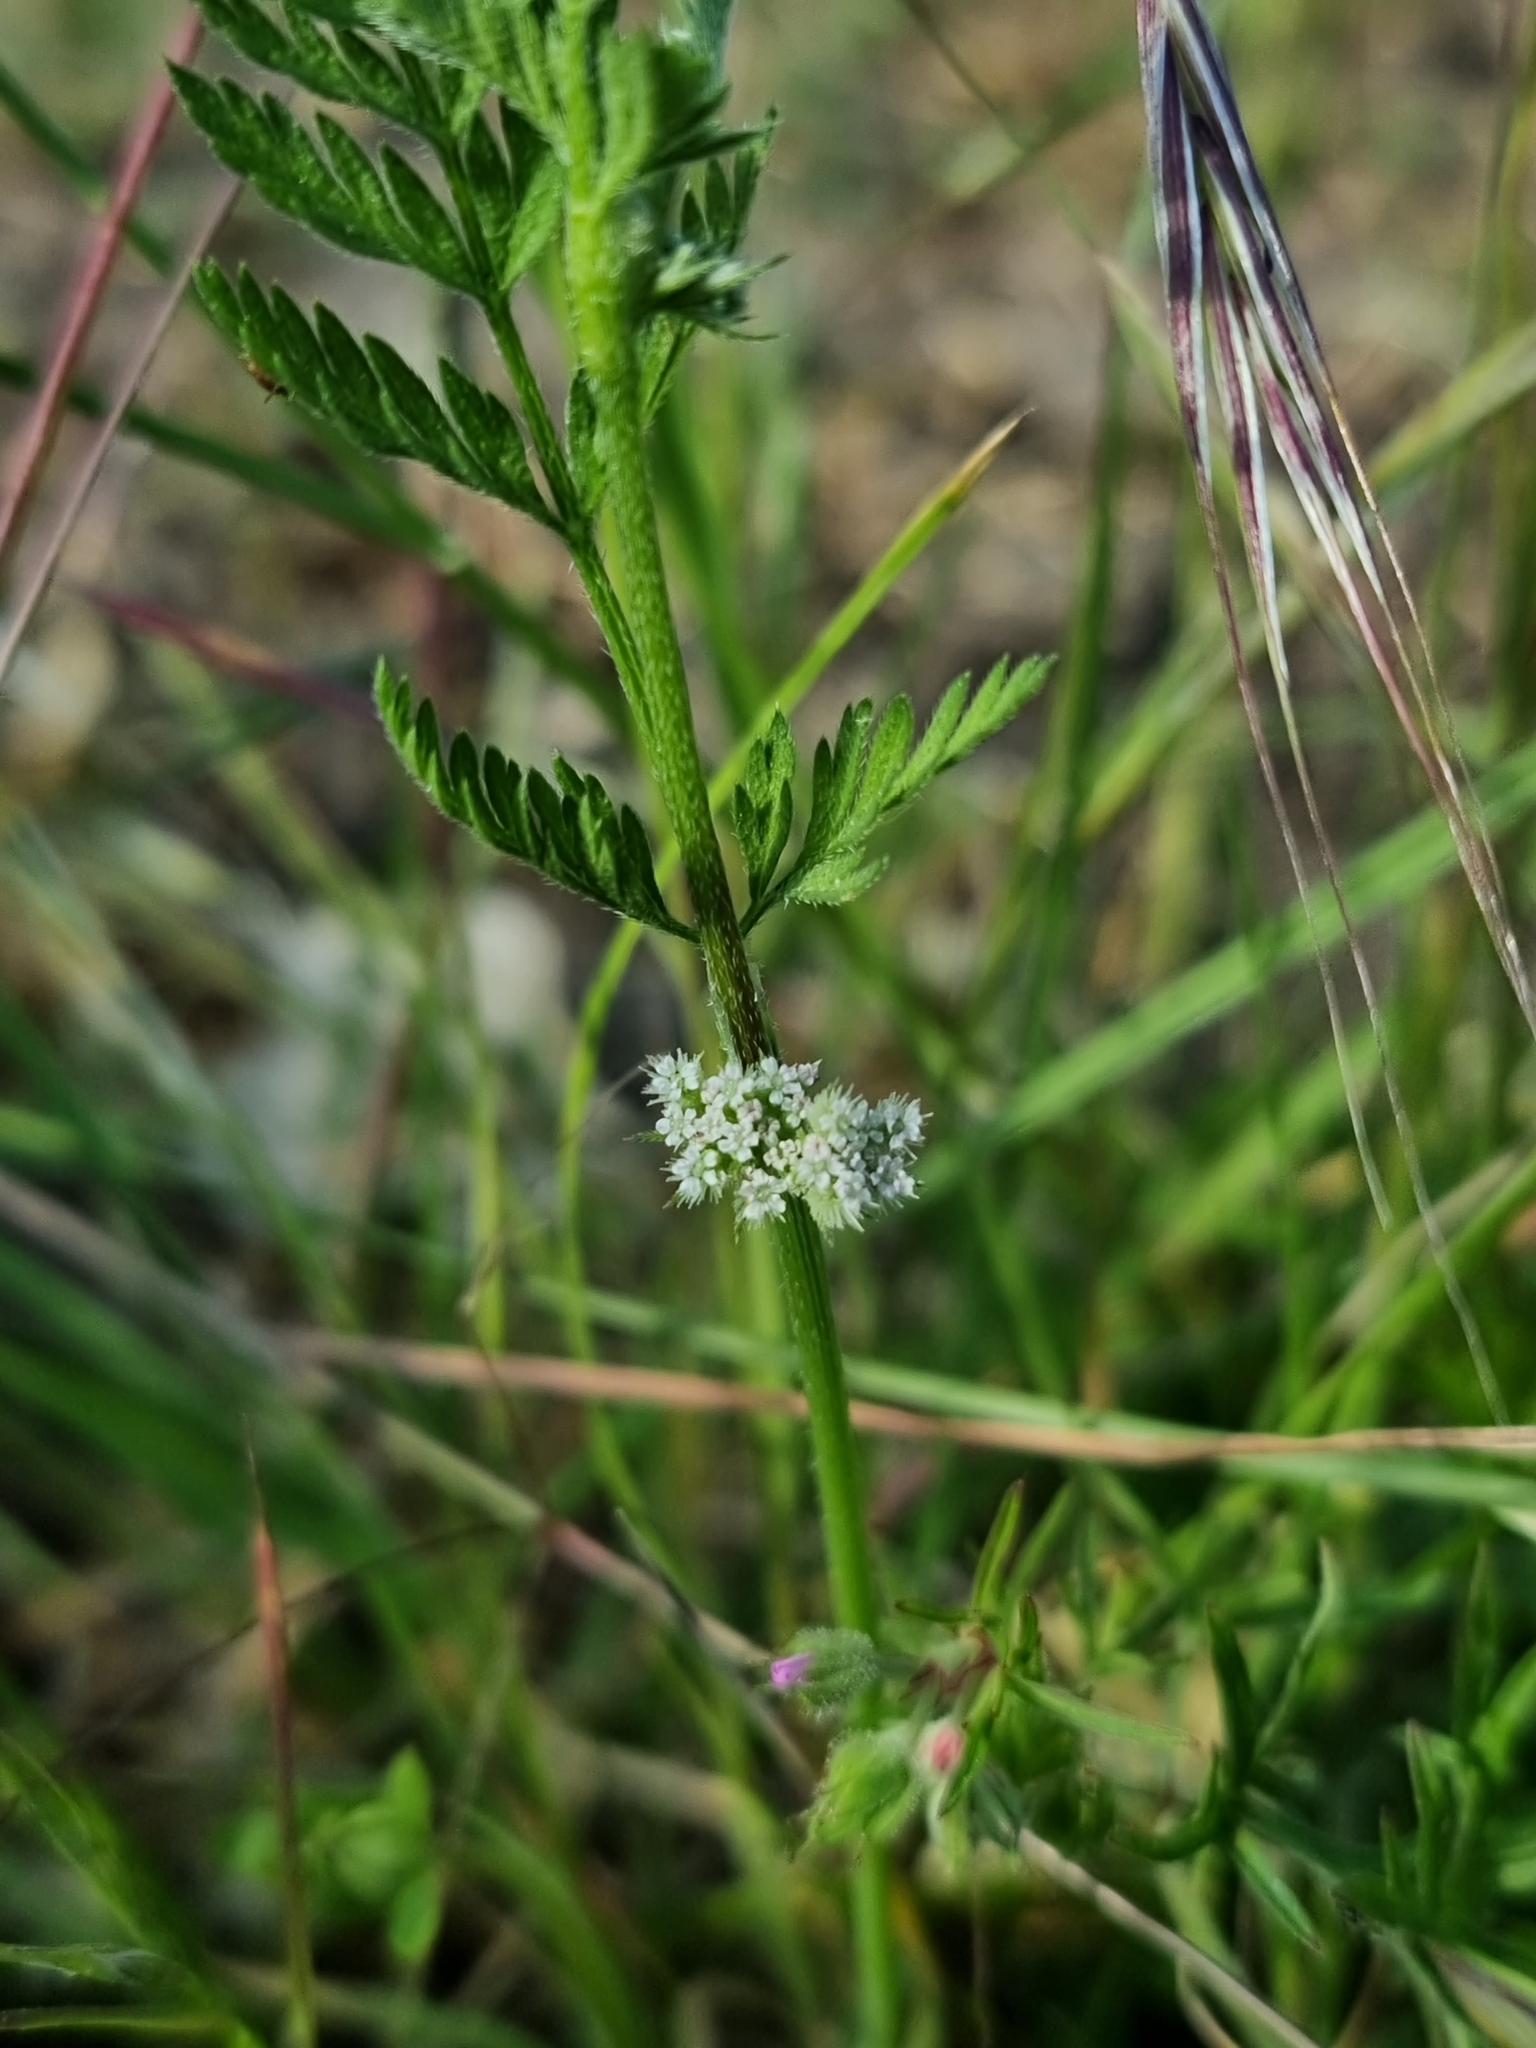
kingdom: Plantae
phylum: Tracheophyta
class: Magnoliopsida
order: Apiales
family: Apiaceae
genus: Torilis
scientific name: Torilis nodosa
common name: Knotted hedge-parsley
